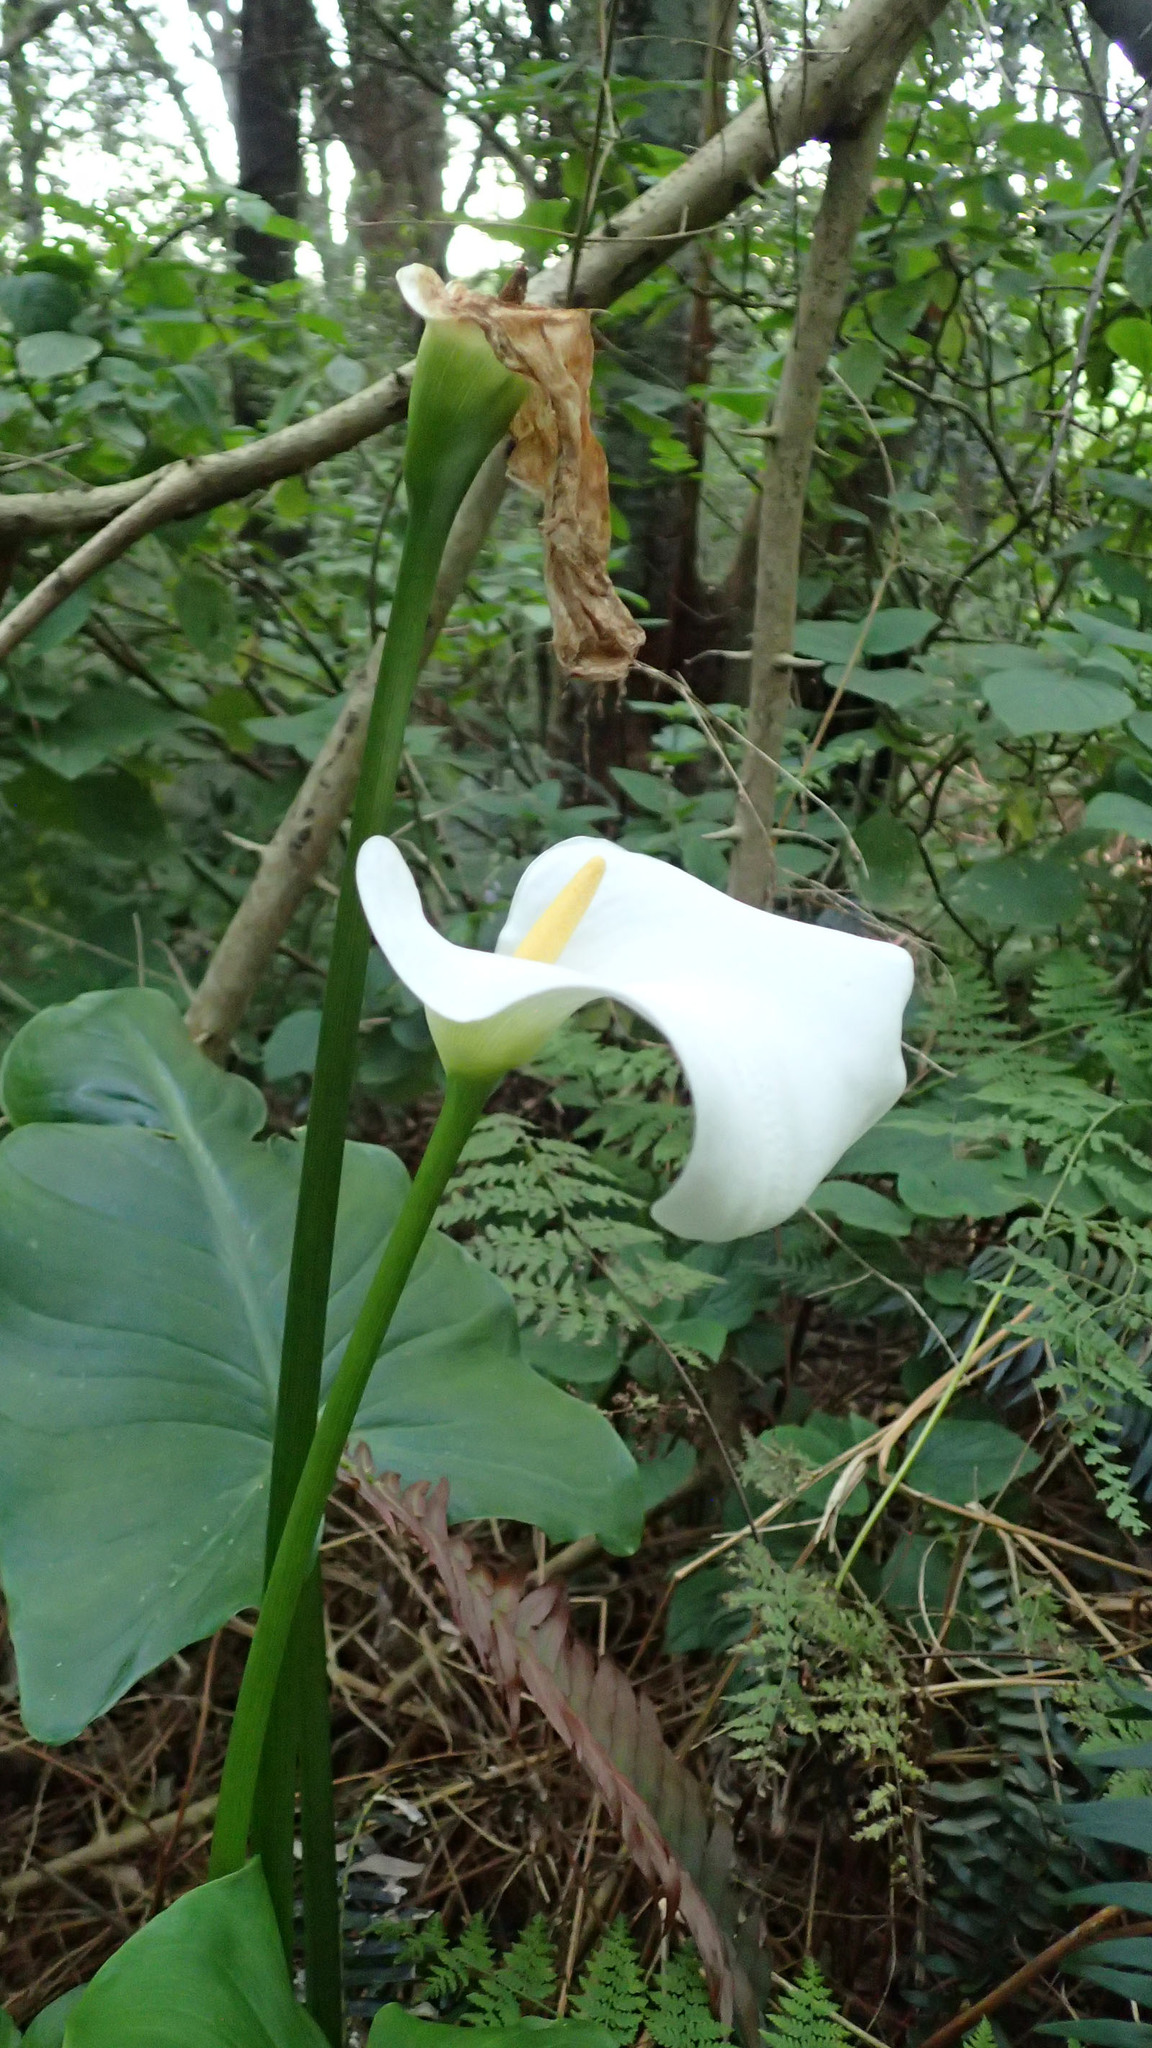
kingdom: Plantae
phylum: Tracheophyta
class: Liliopsida
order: Alismatales
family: Araceae
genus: Zantedeschia
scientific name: Zantedeschia aethiopica
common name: Altar-lily
